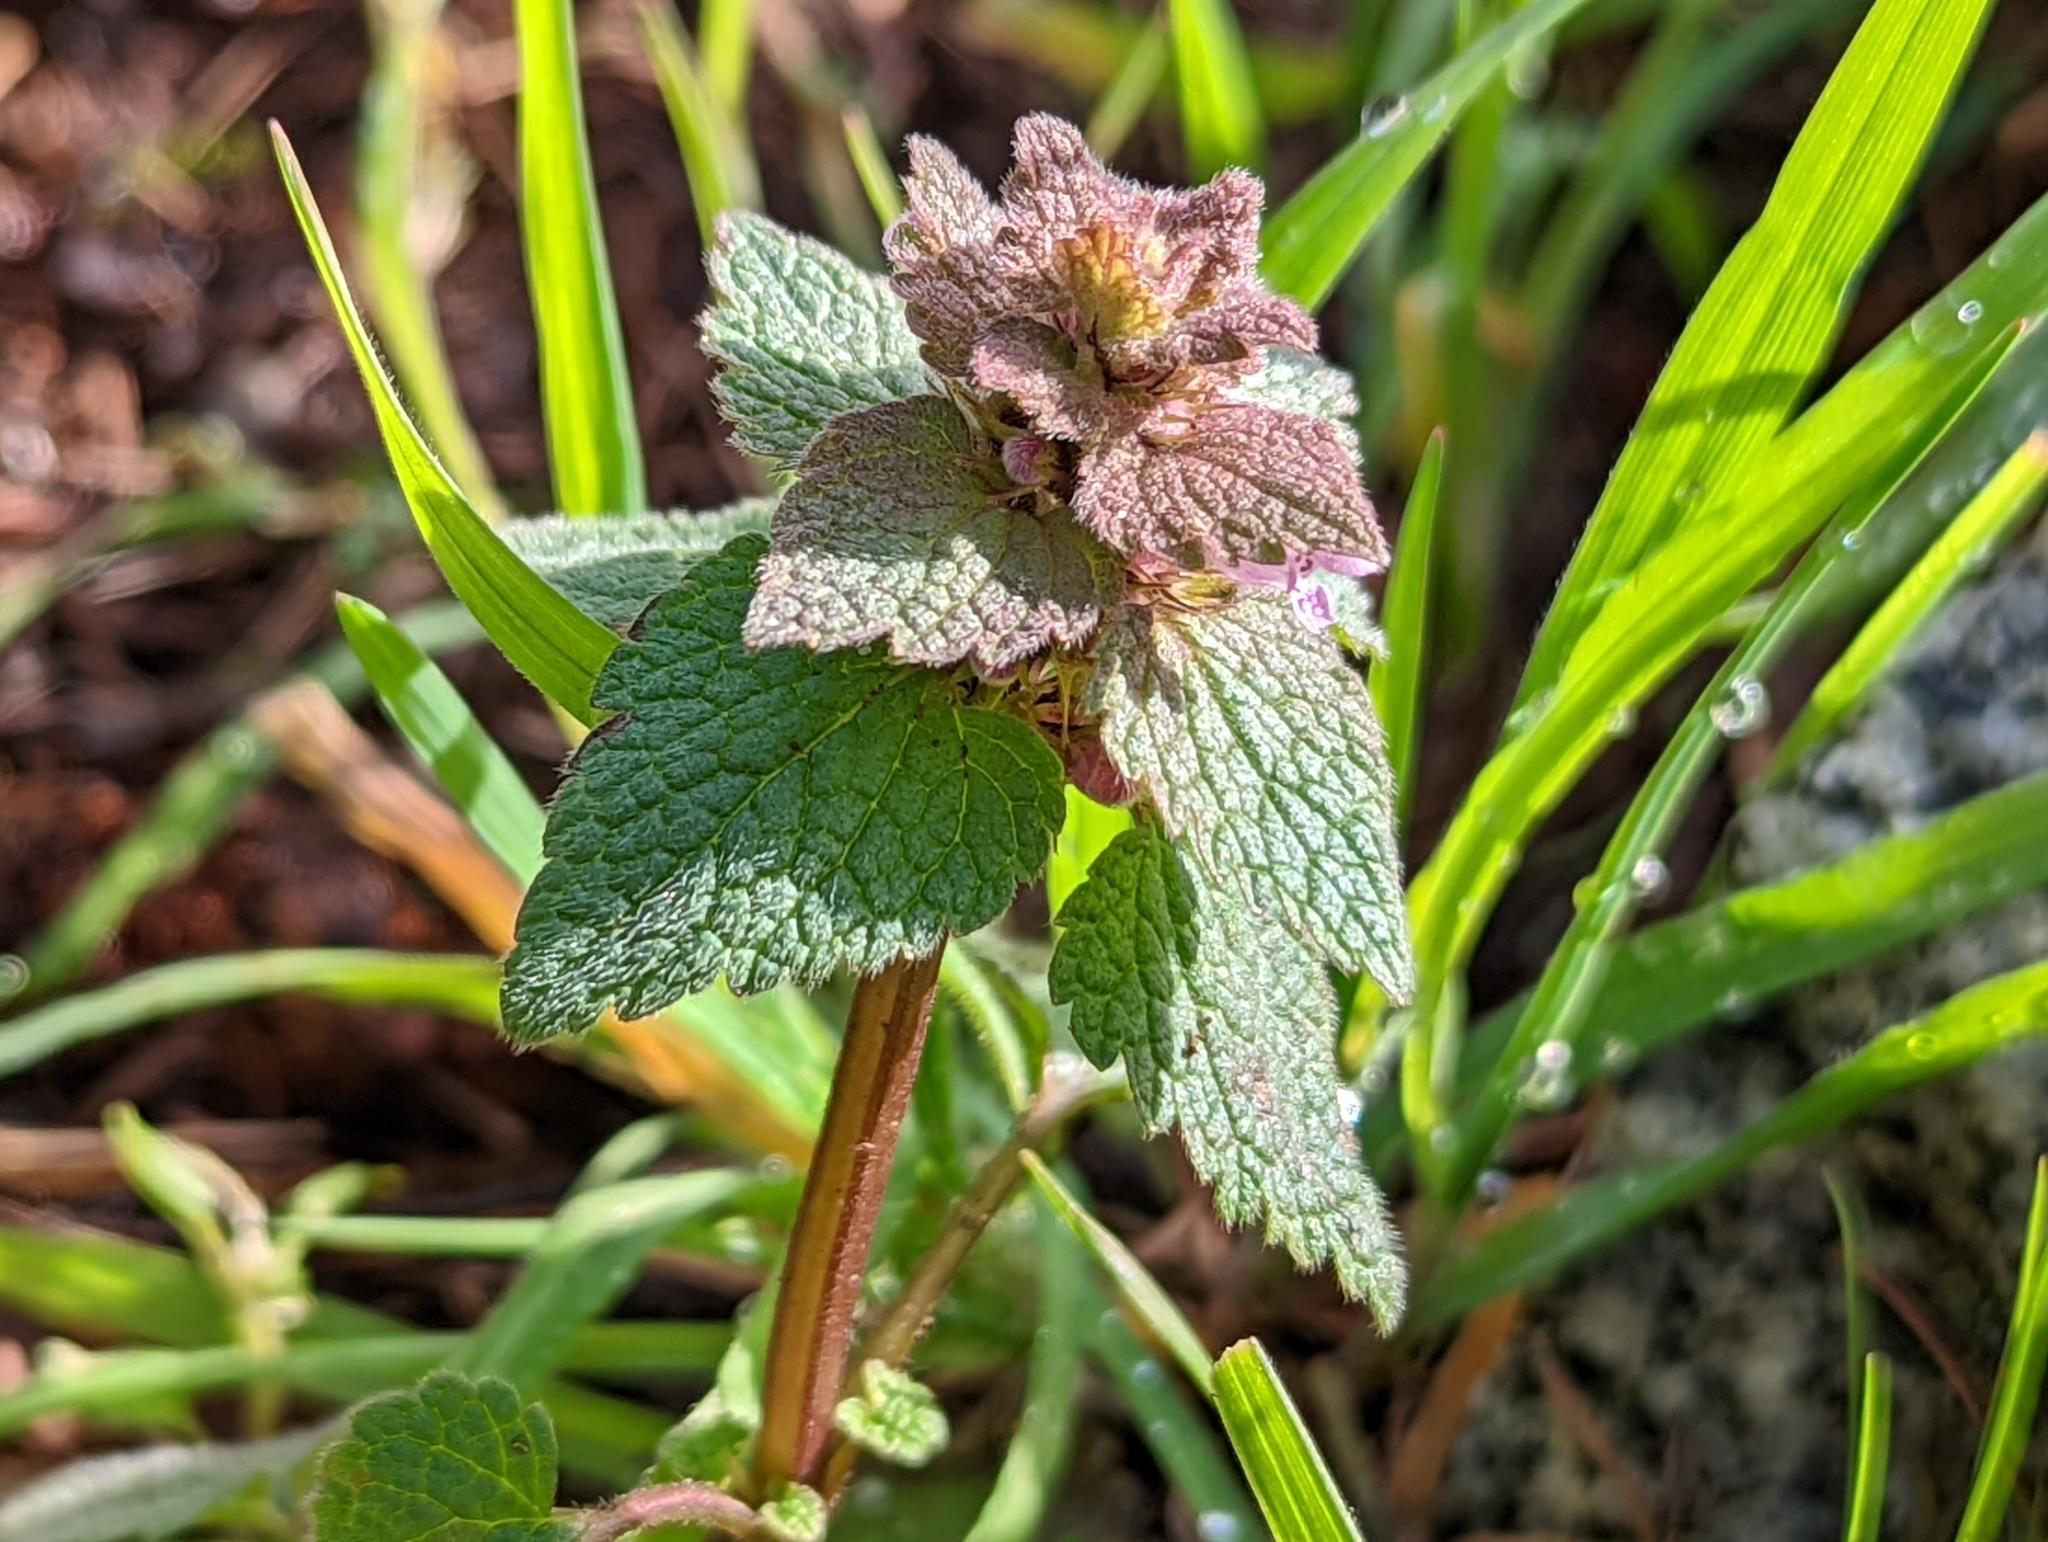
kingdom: Plantae
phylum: Tracheophyta
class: Magnoliopsida
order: Lamiales
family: Lamiaceae
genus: Lamium
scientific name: Lamium purpureum
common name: Red dead-nettle
